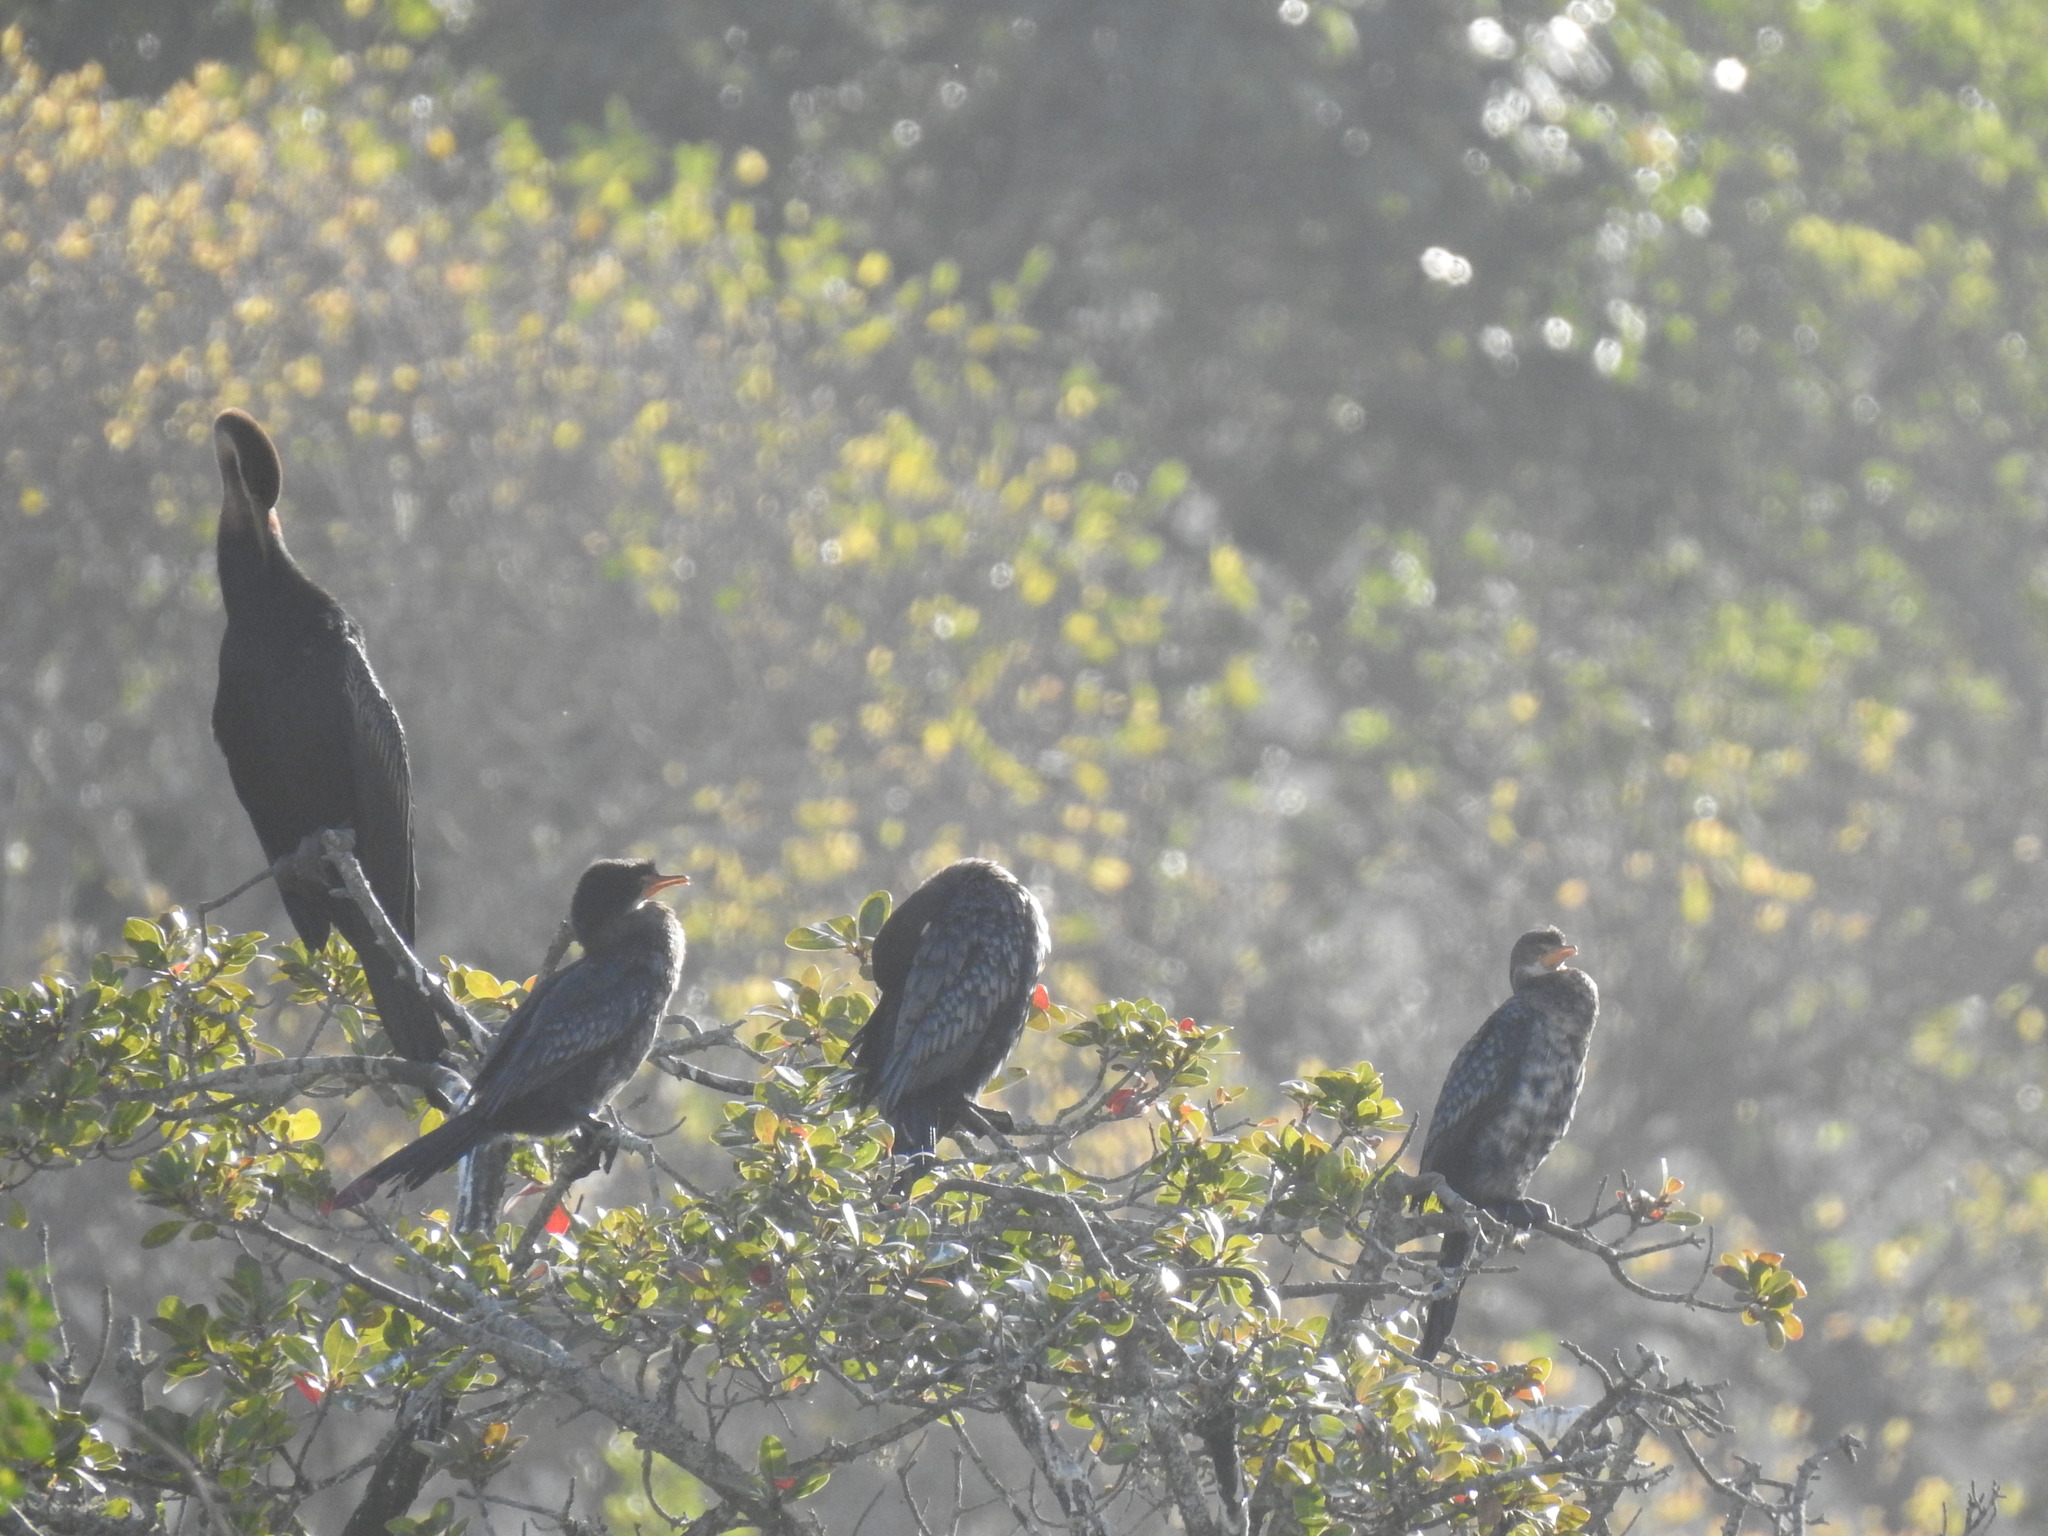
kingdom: Animalia
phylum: Chordata
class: Aves
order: Suliformes
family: Anhingidae
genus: Anhinga
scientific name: Anhinga rufa
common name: African darter
